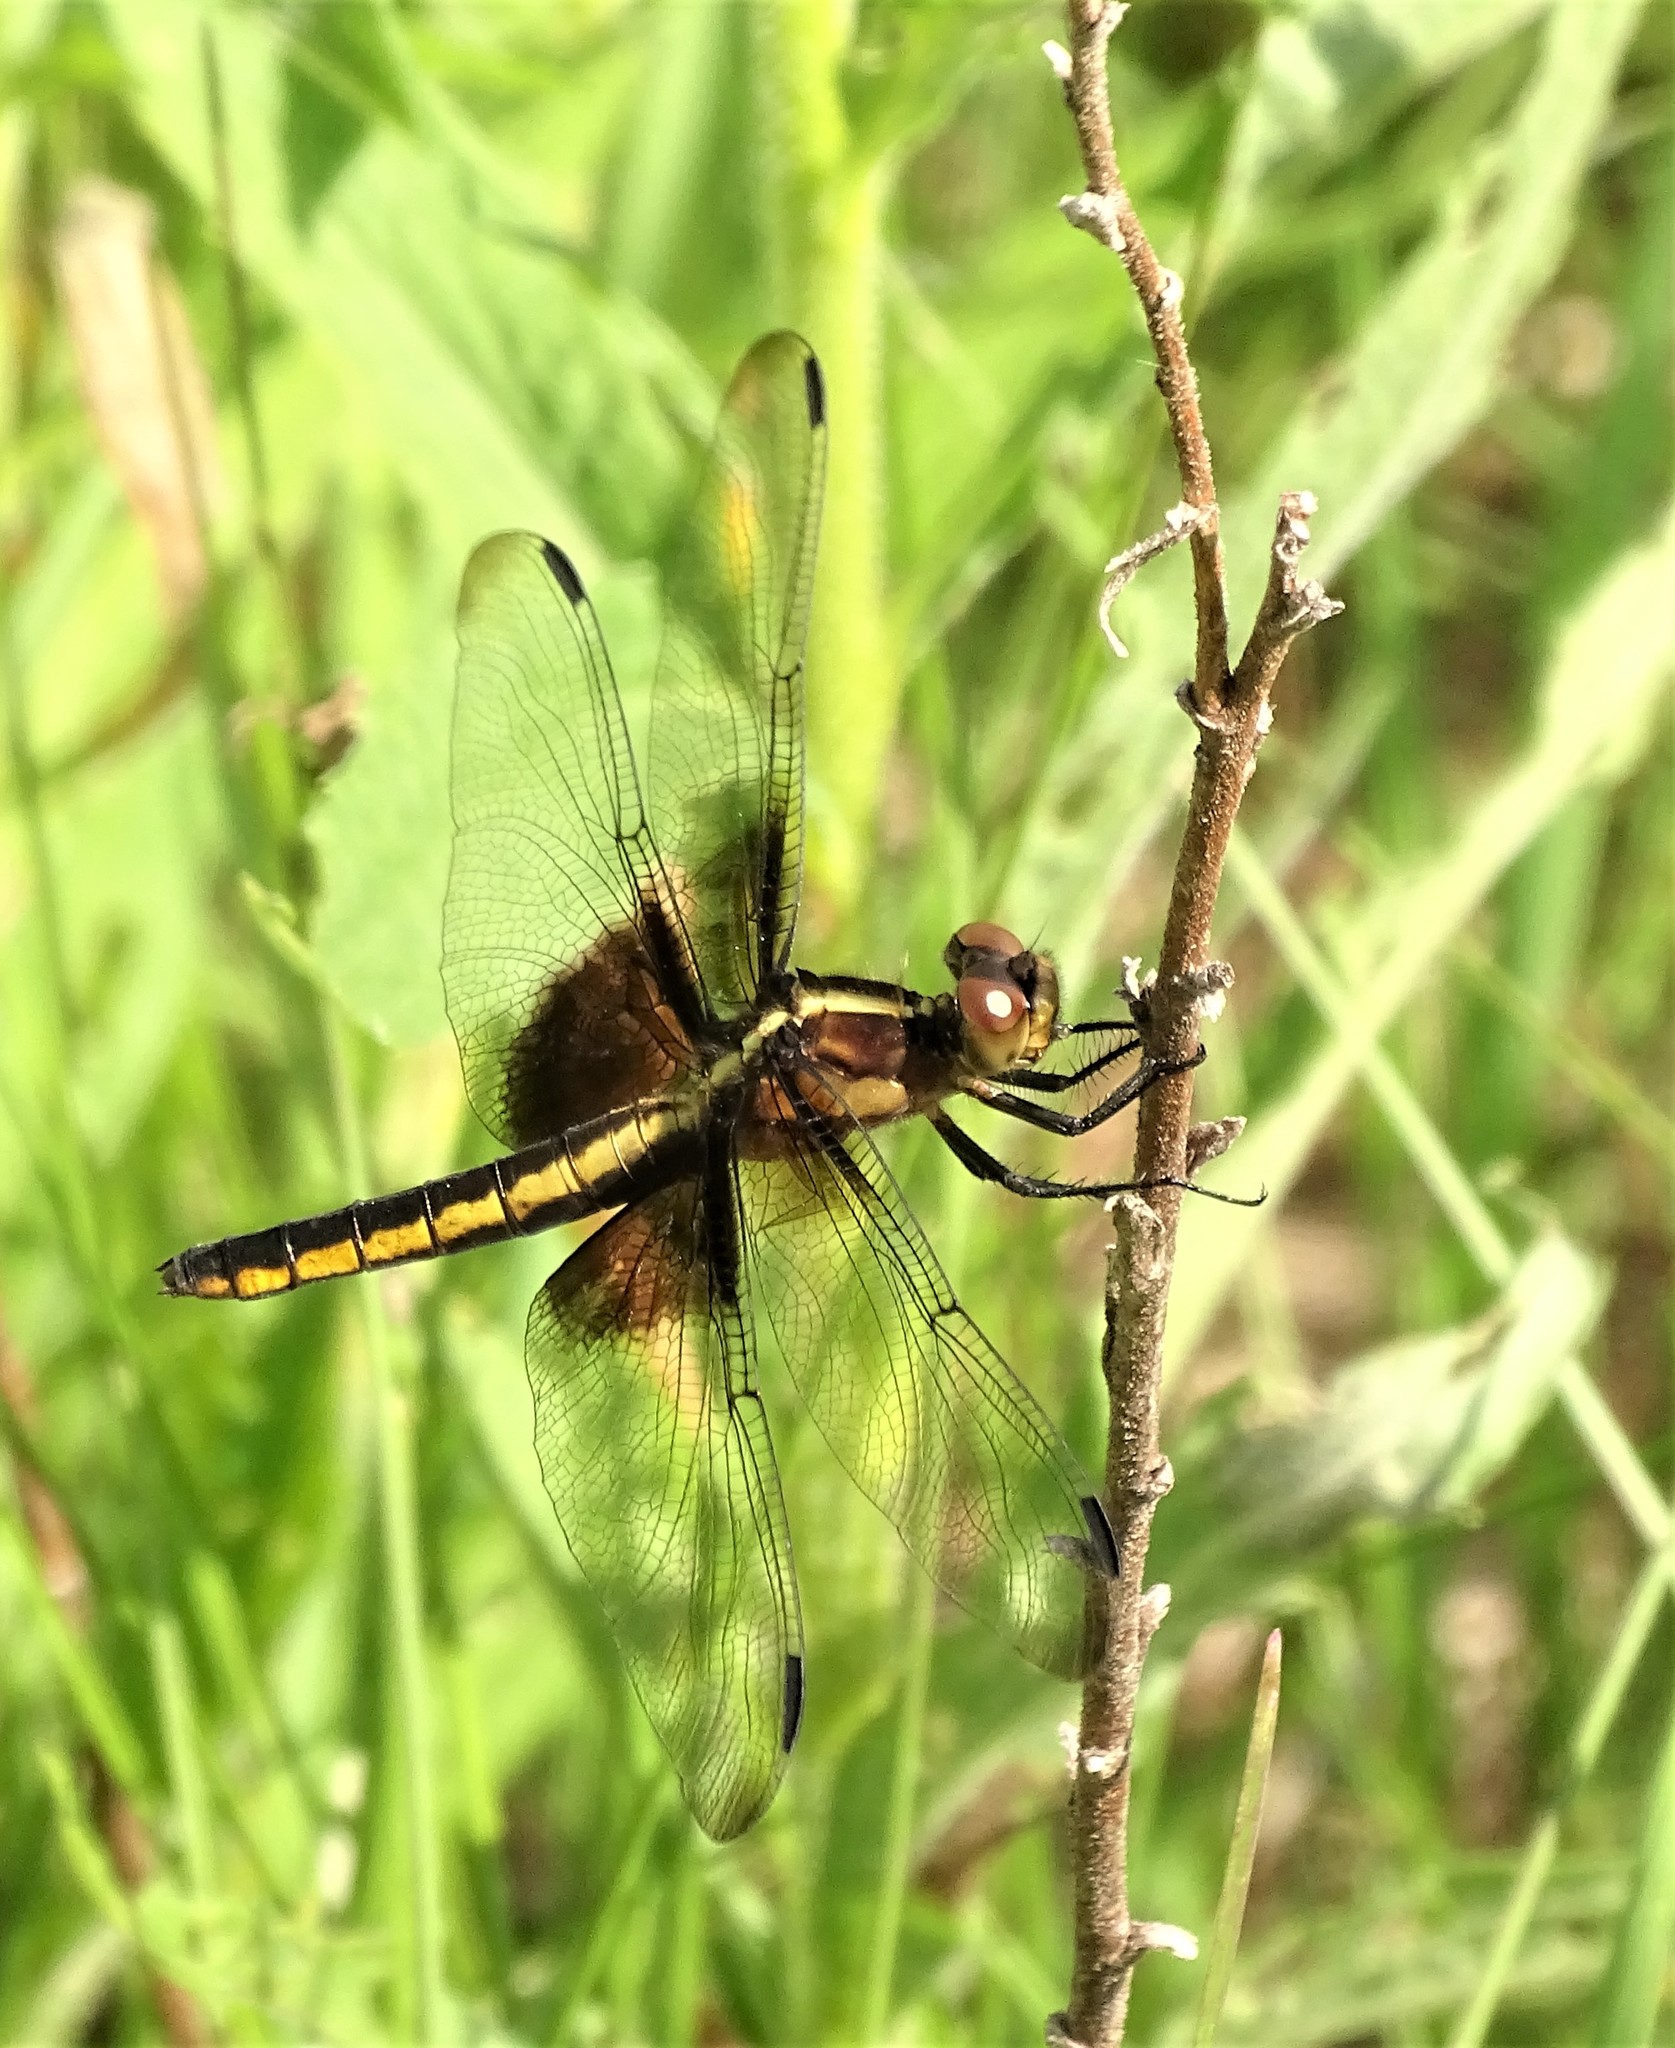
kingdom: Animalia
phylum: Arthropoda
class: Insecta
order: Odonata
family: Libellulidae
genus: Libellula
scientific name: Libellula luctuosa
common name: Widow skimmer
